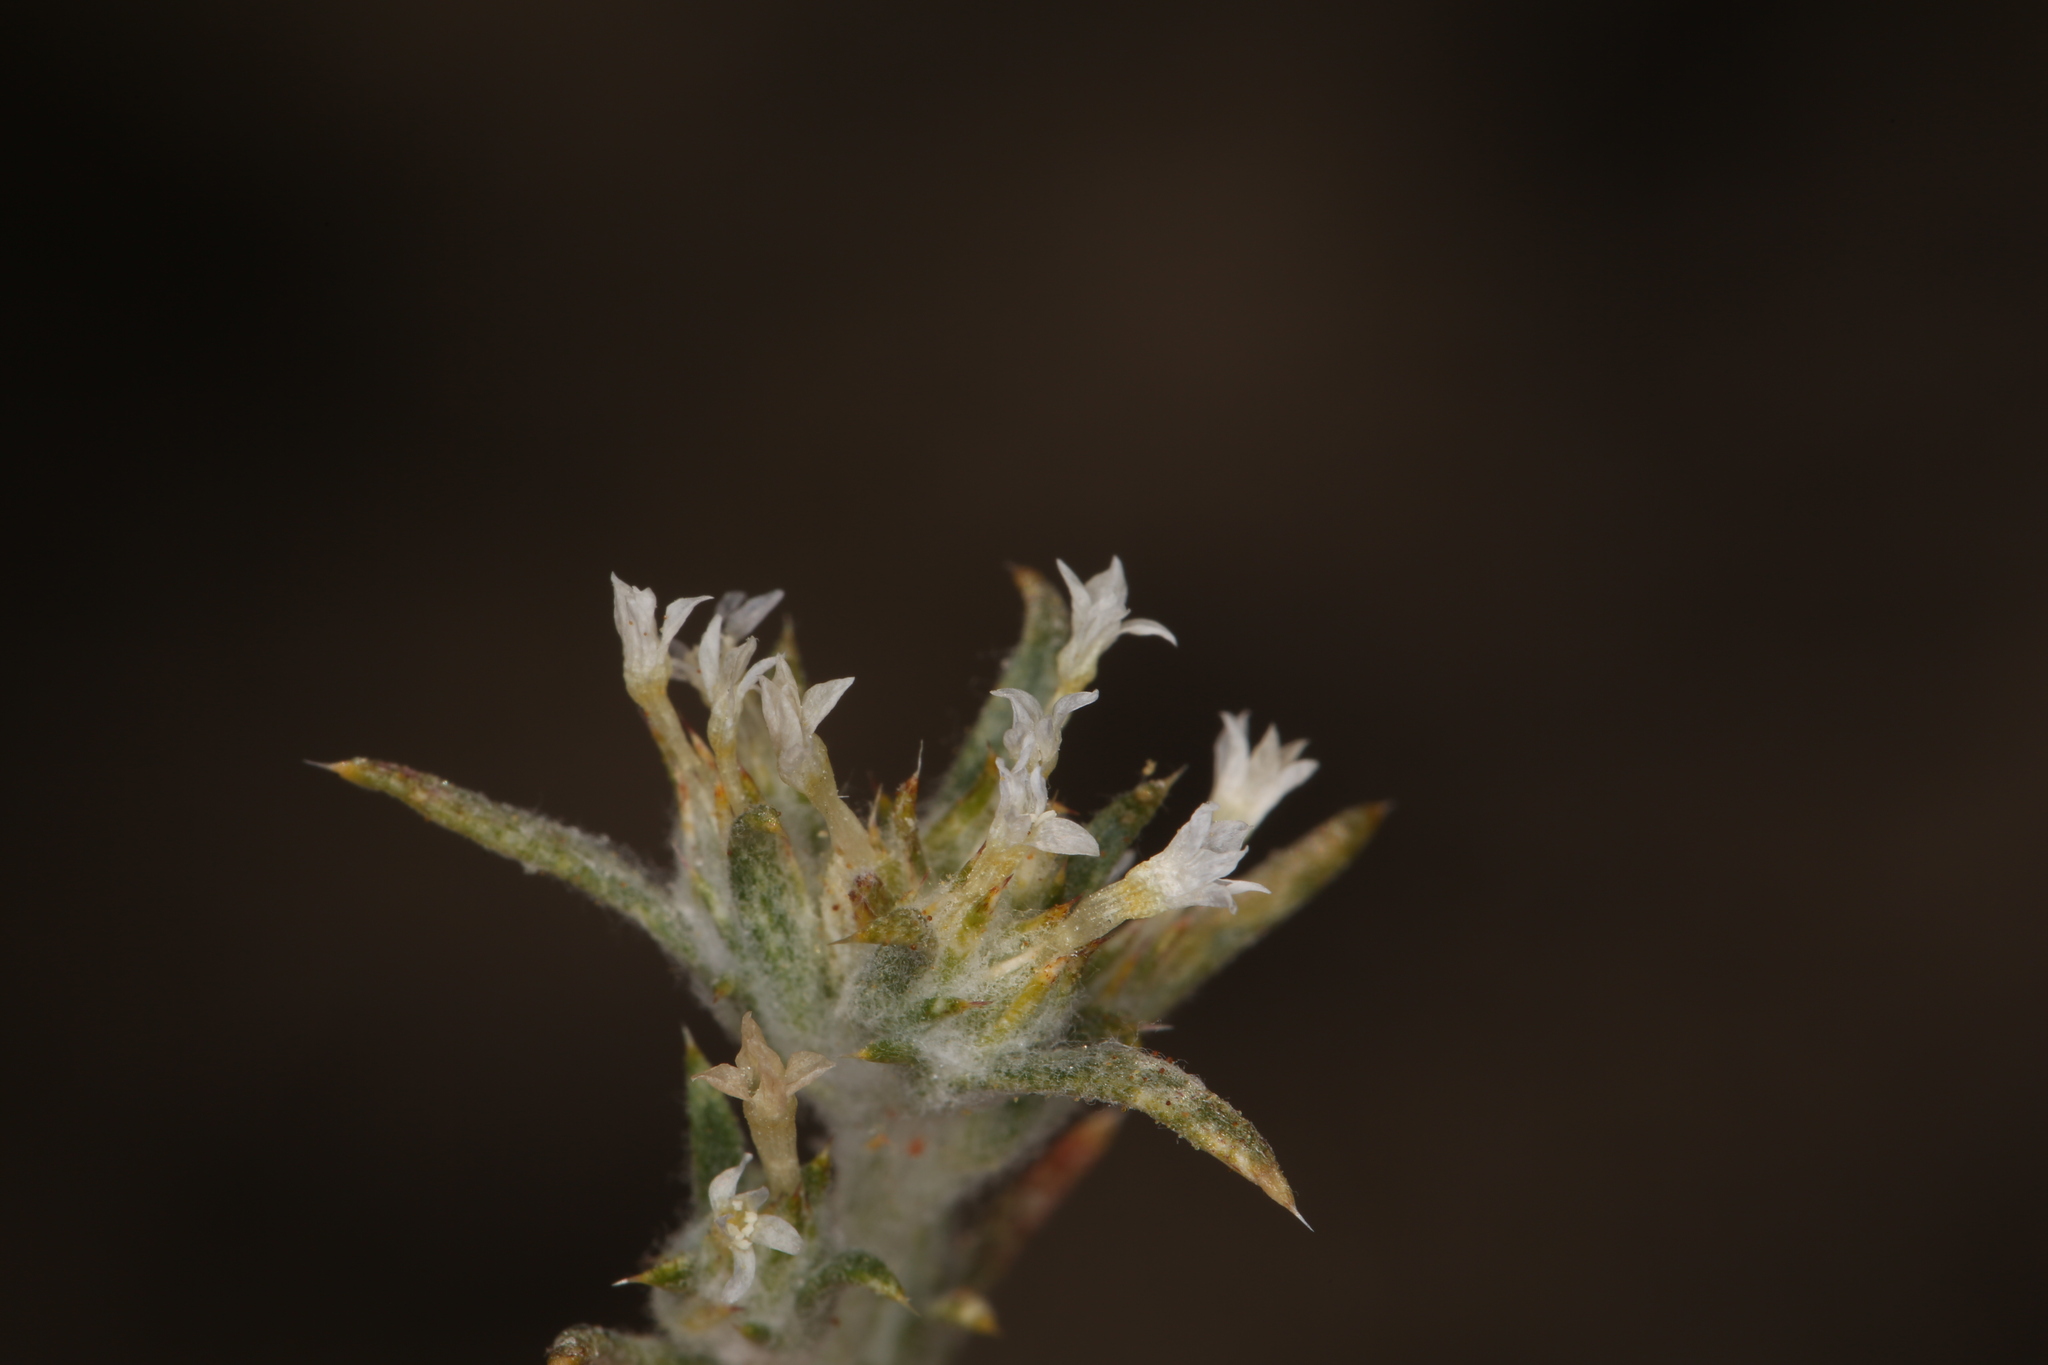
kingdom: Plantae
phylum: Tracheophyta
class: Magnoliopsida
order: Ericales
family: Polemoniaceae
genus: Eriastrum
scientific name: Eriastrum rosamondense
